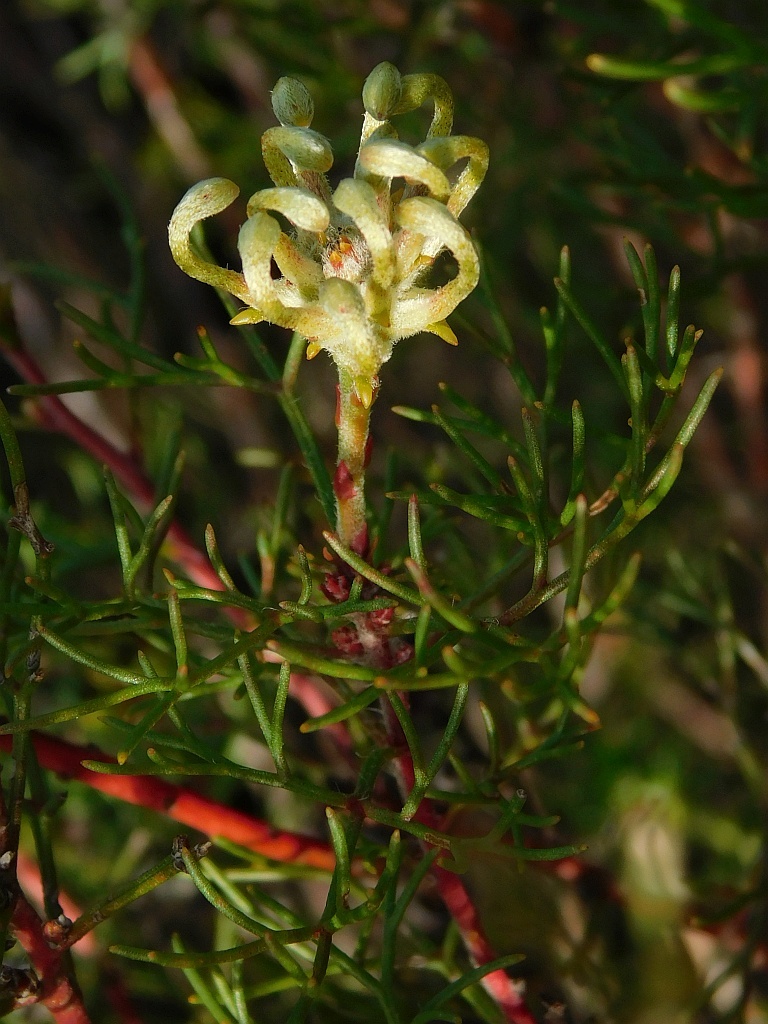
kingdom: Plantae
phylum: Tracheophyta
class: Magnoliopsida
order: Proteales
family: Proteaceae
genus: Serruria
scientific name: Serruria
